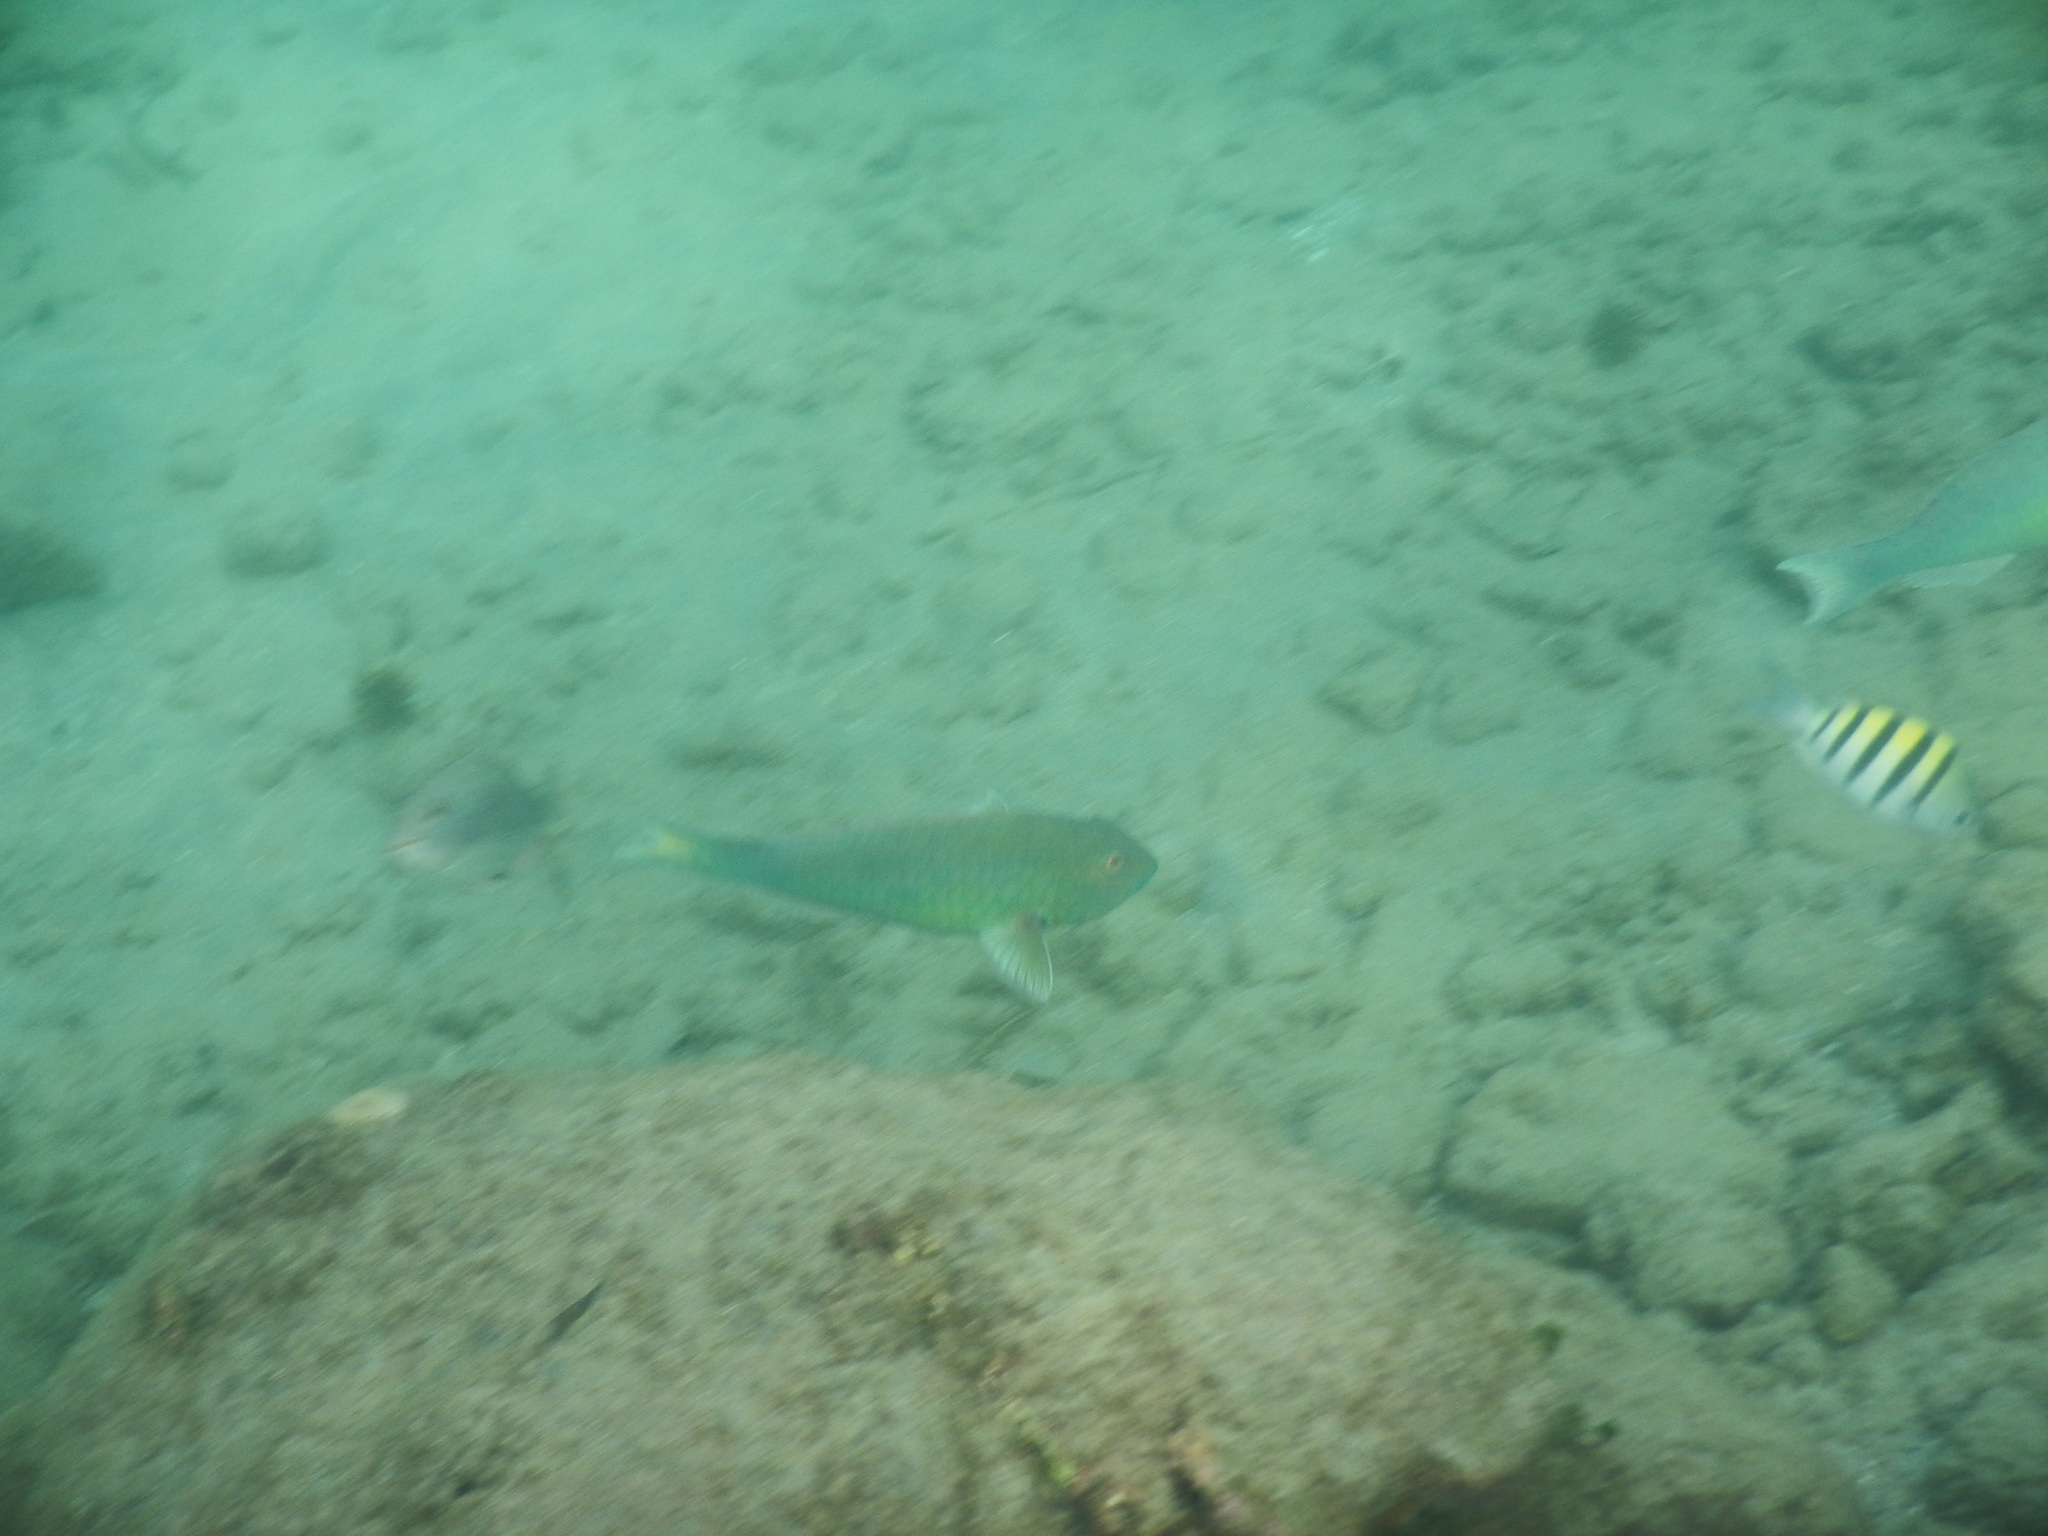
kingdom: Animalia
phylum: Chordata
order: Perciformes
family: Scaridae
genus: Sparisoma
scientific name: Sparisoma rubripinne
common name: Redfin parrotfish
